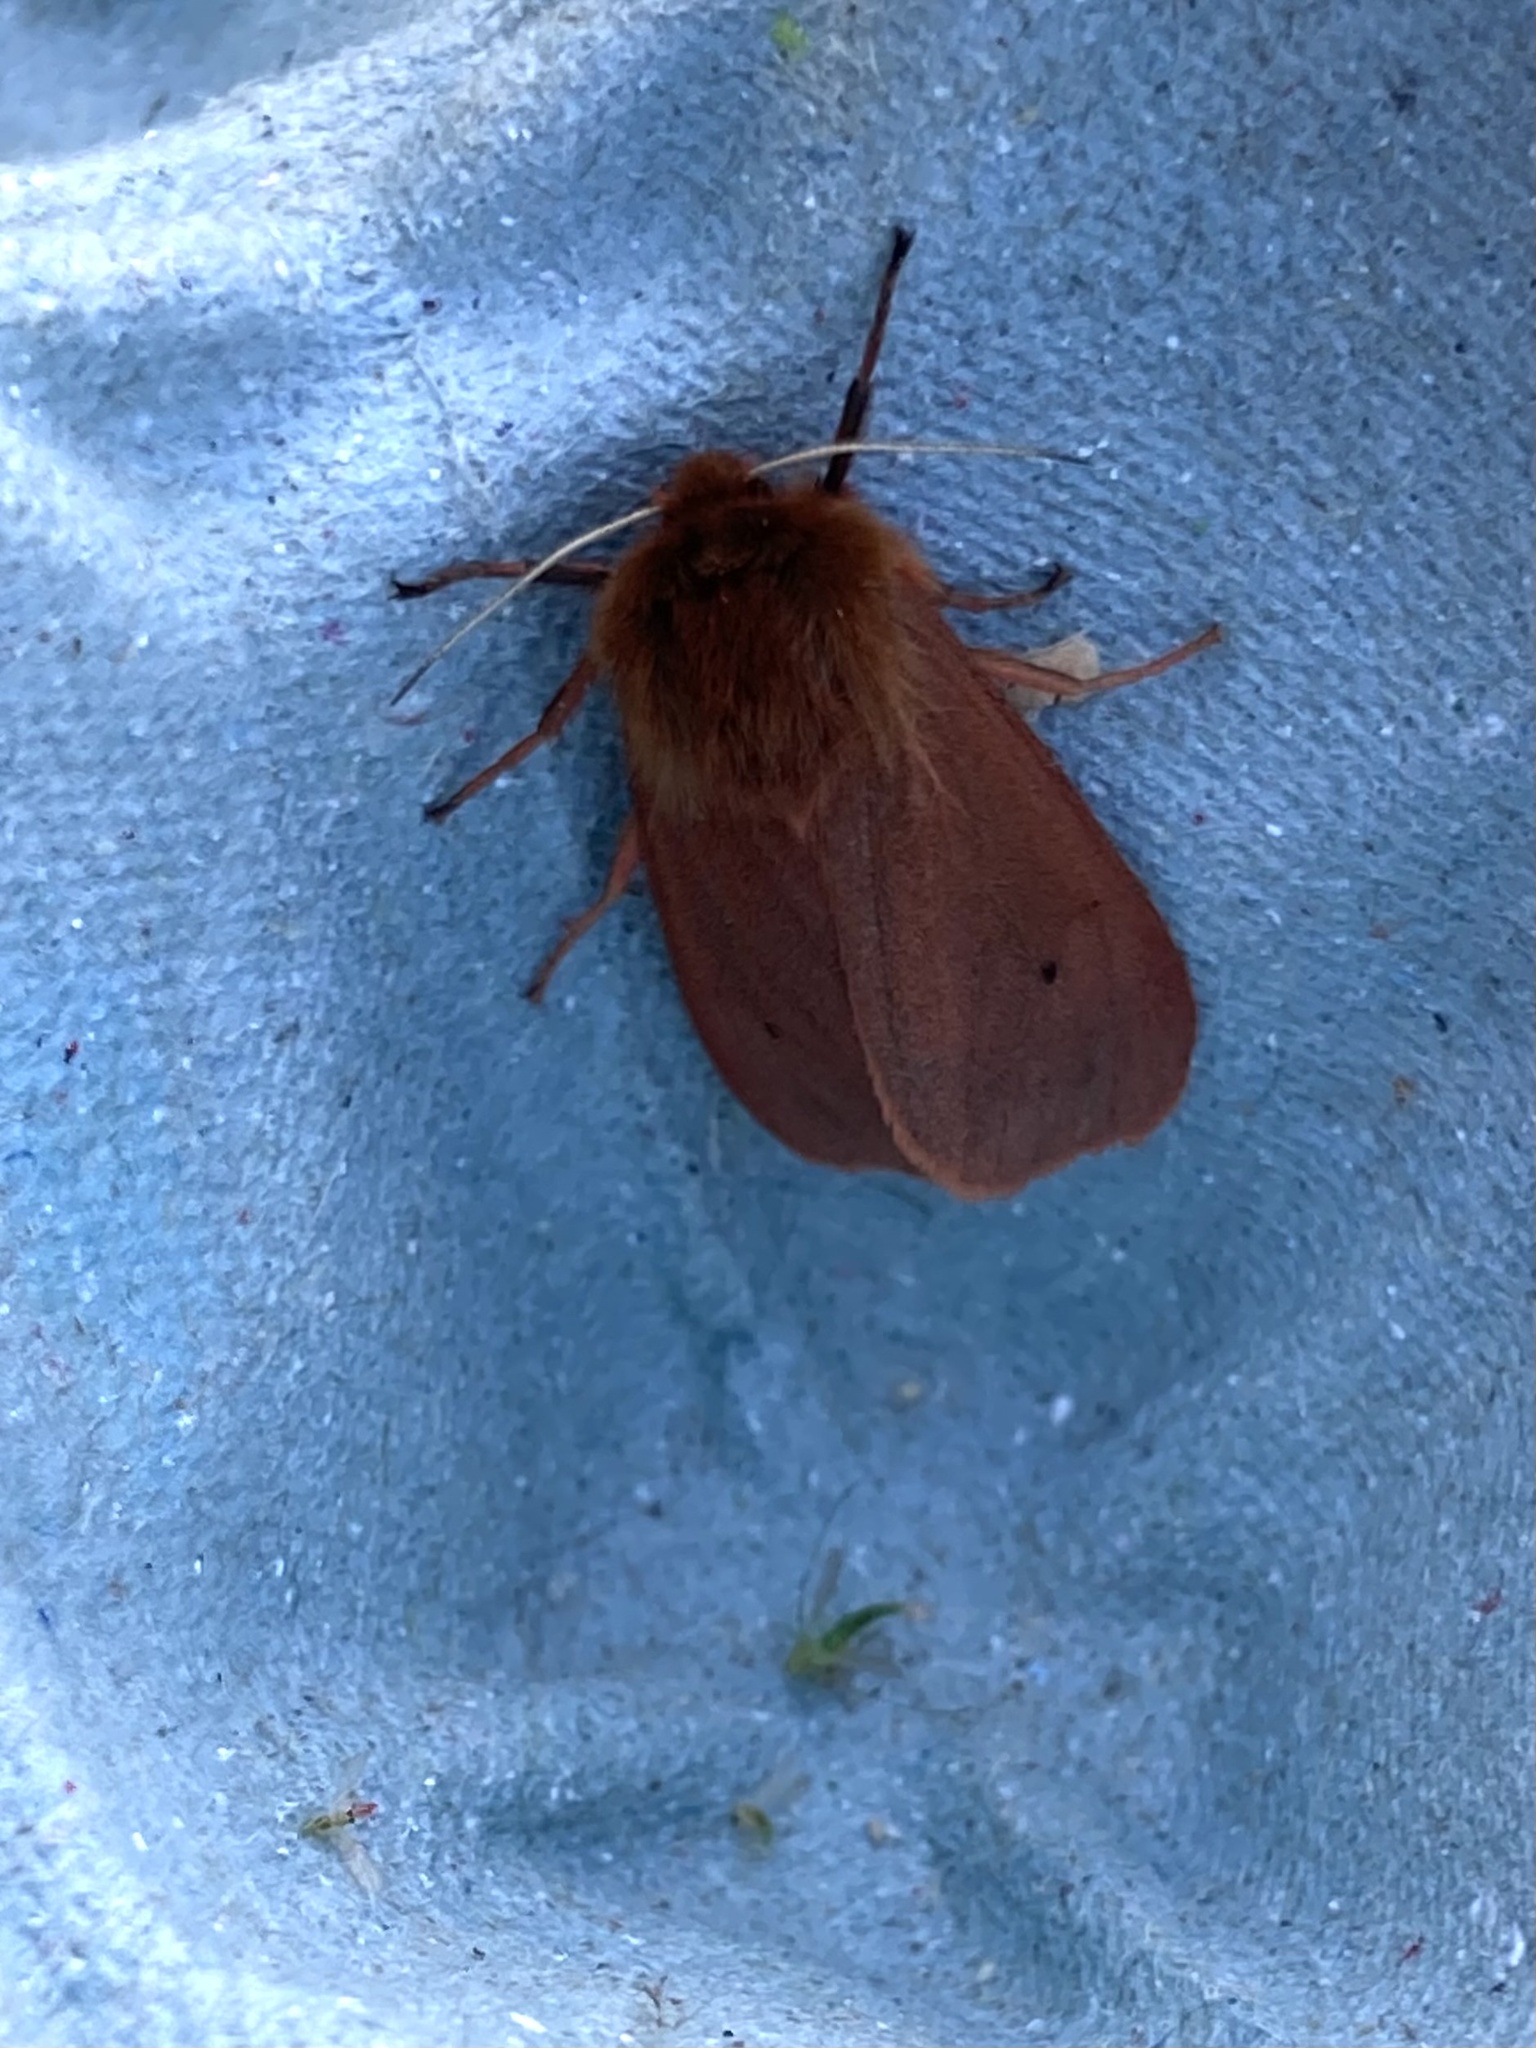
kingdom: Animalia
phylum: Arthropoda
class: Insecta
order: Lepidoptera
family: Erebidae
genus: Phragmatobia
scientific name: Phragmatobia fuliginosa
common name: Ruby tiger
